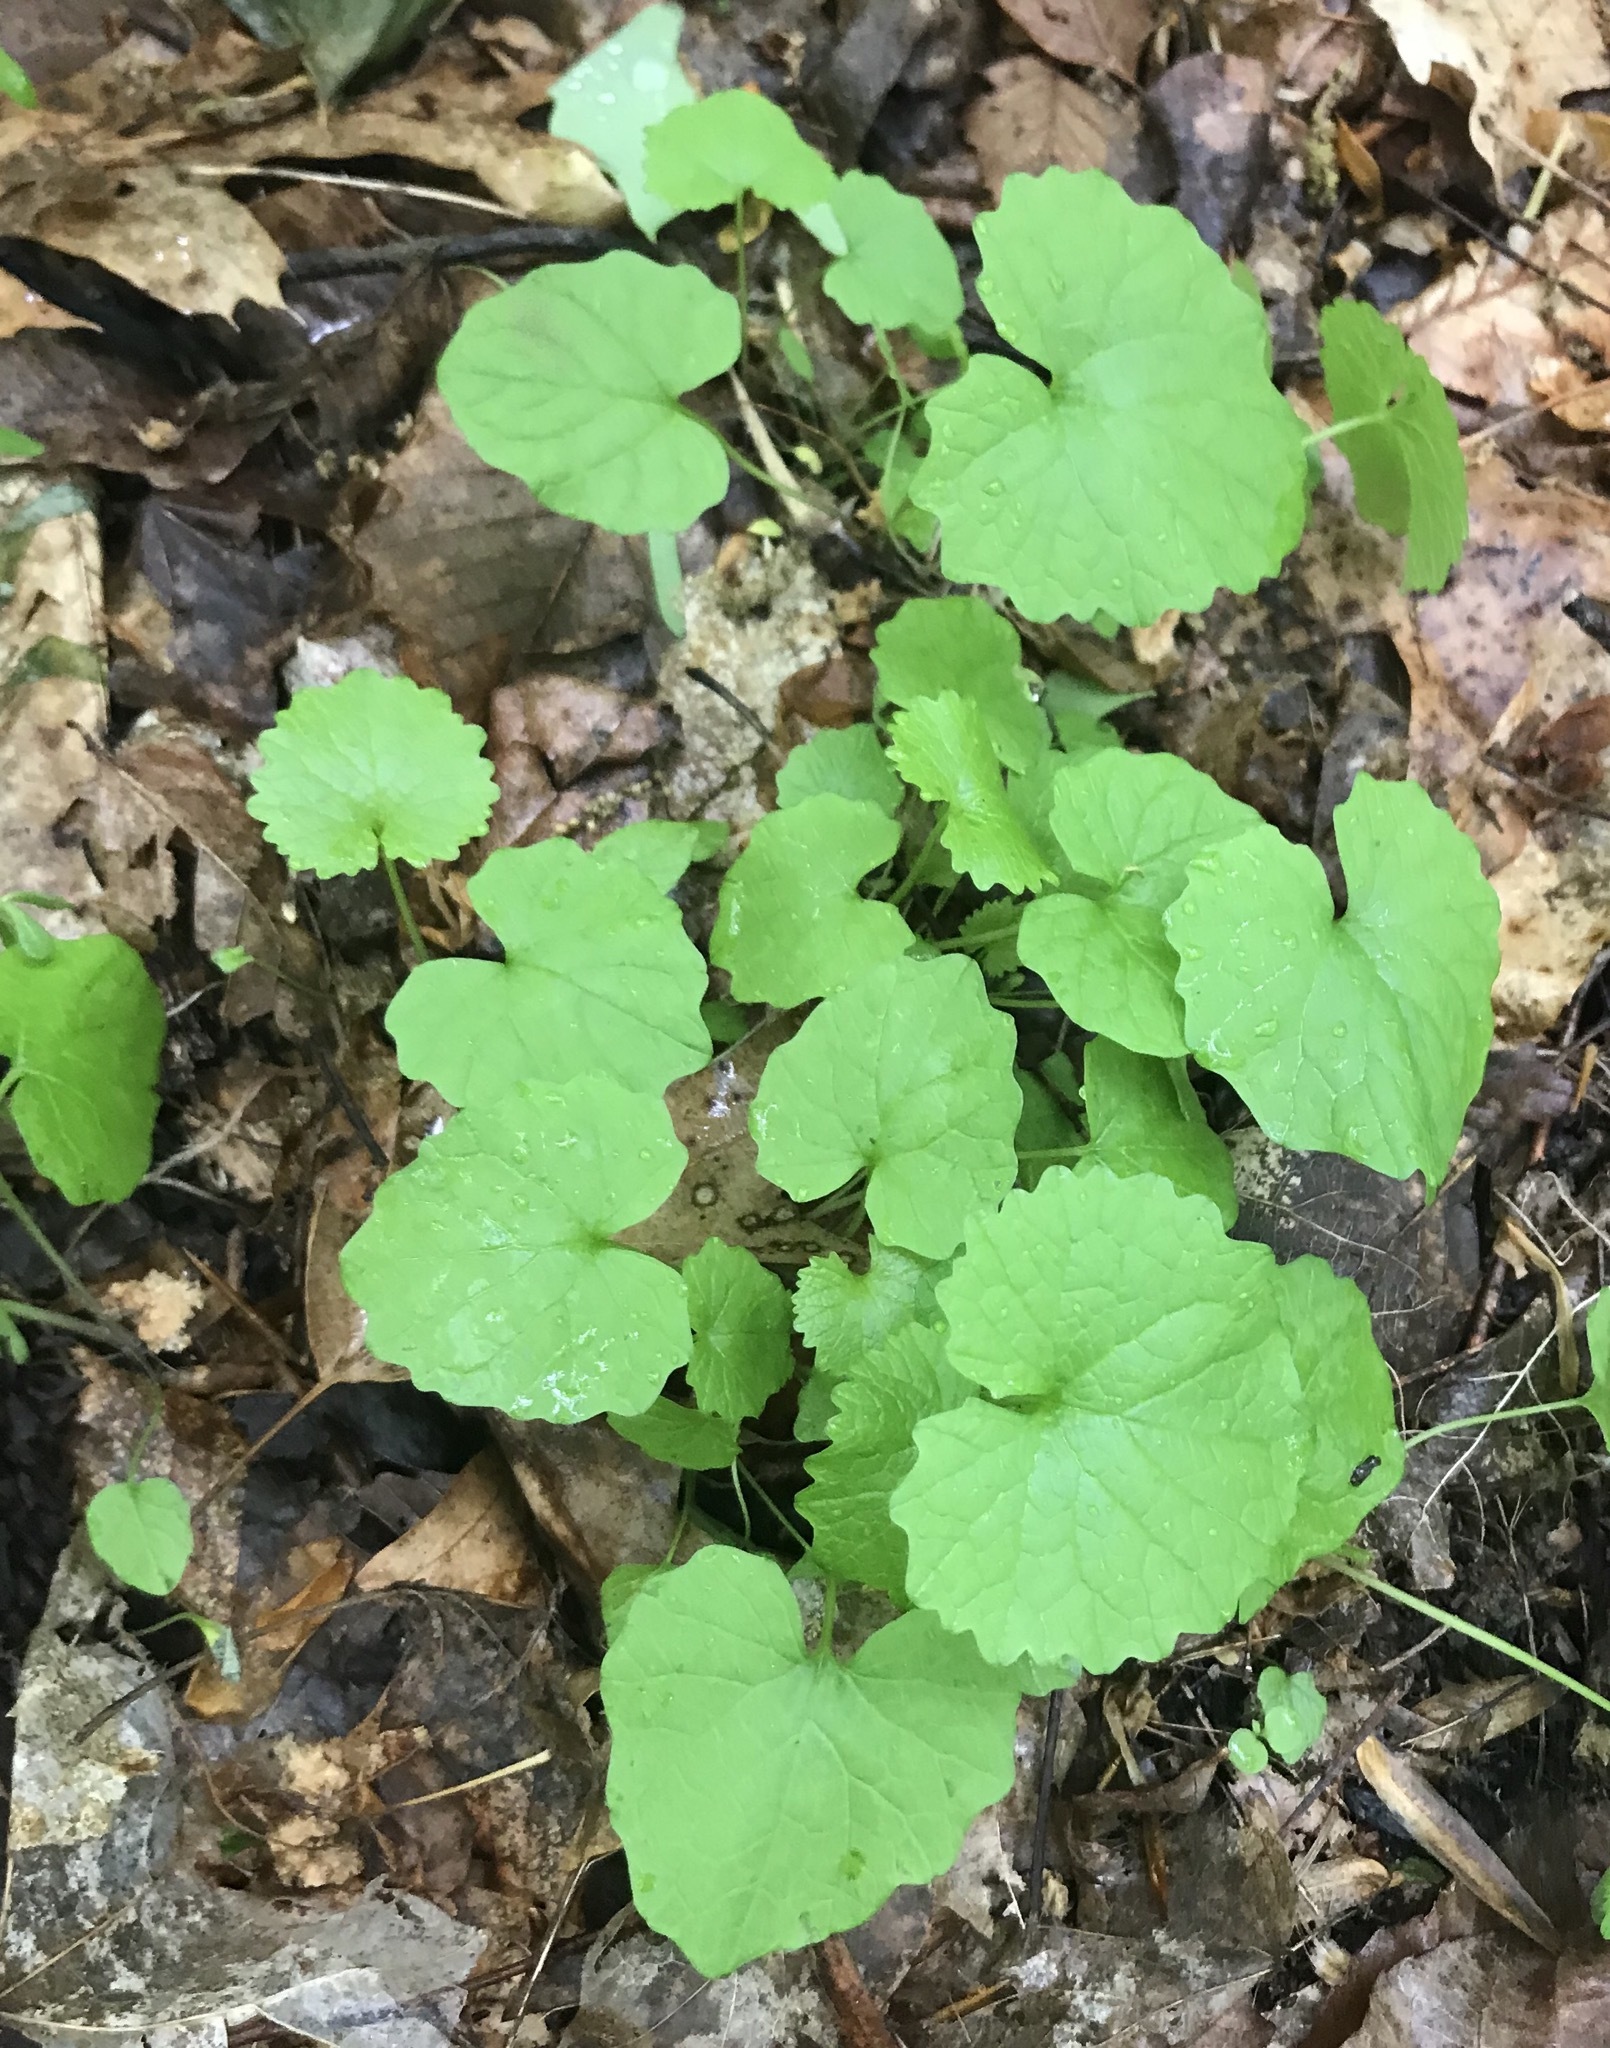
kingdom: Plantae
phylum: Tracheophyta
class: Magnoliopsida
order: Brassicales
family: Brassicaceae
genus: Alliaria
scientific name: Alliaria petiolata
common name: Garlic mustard
